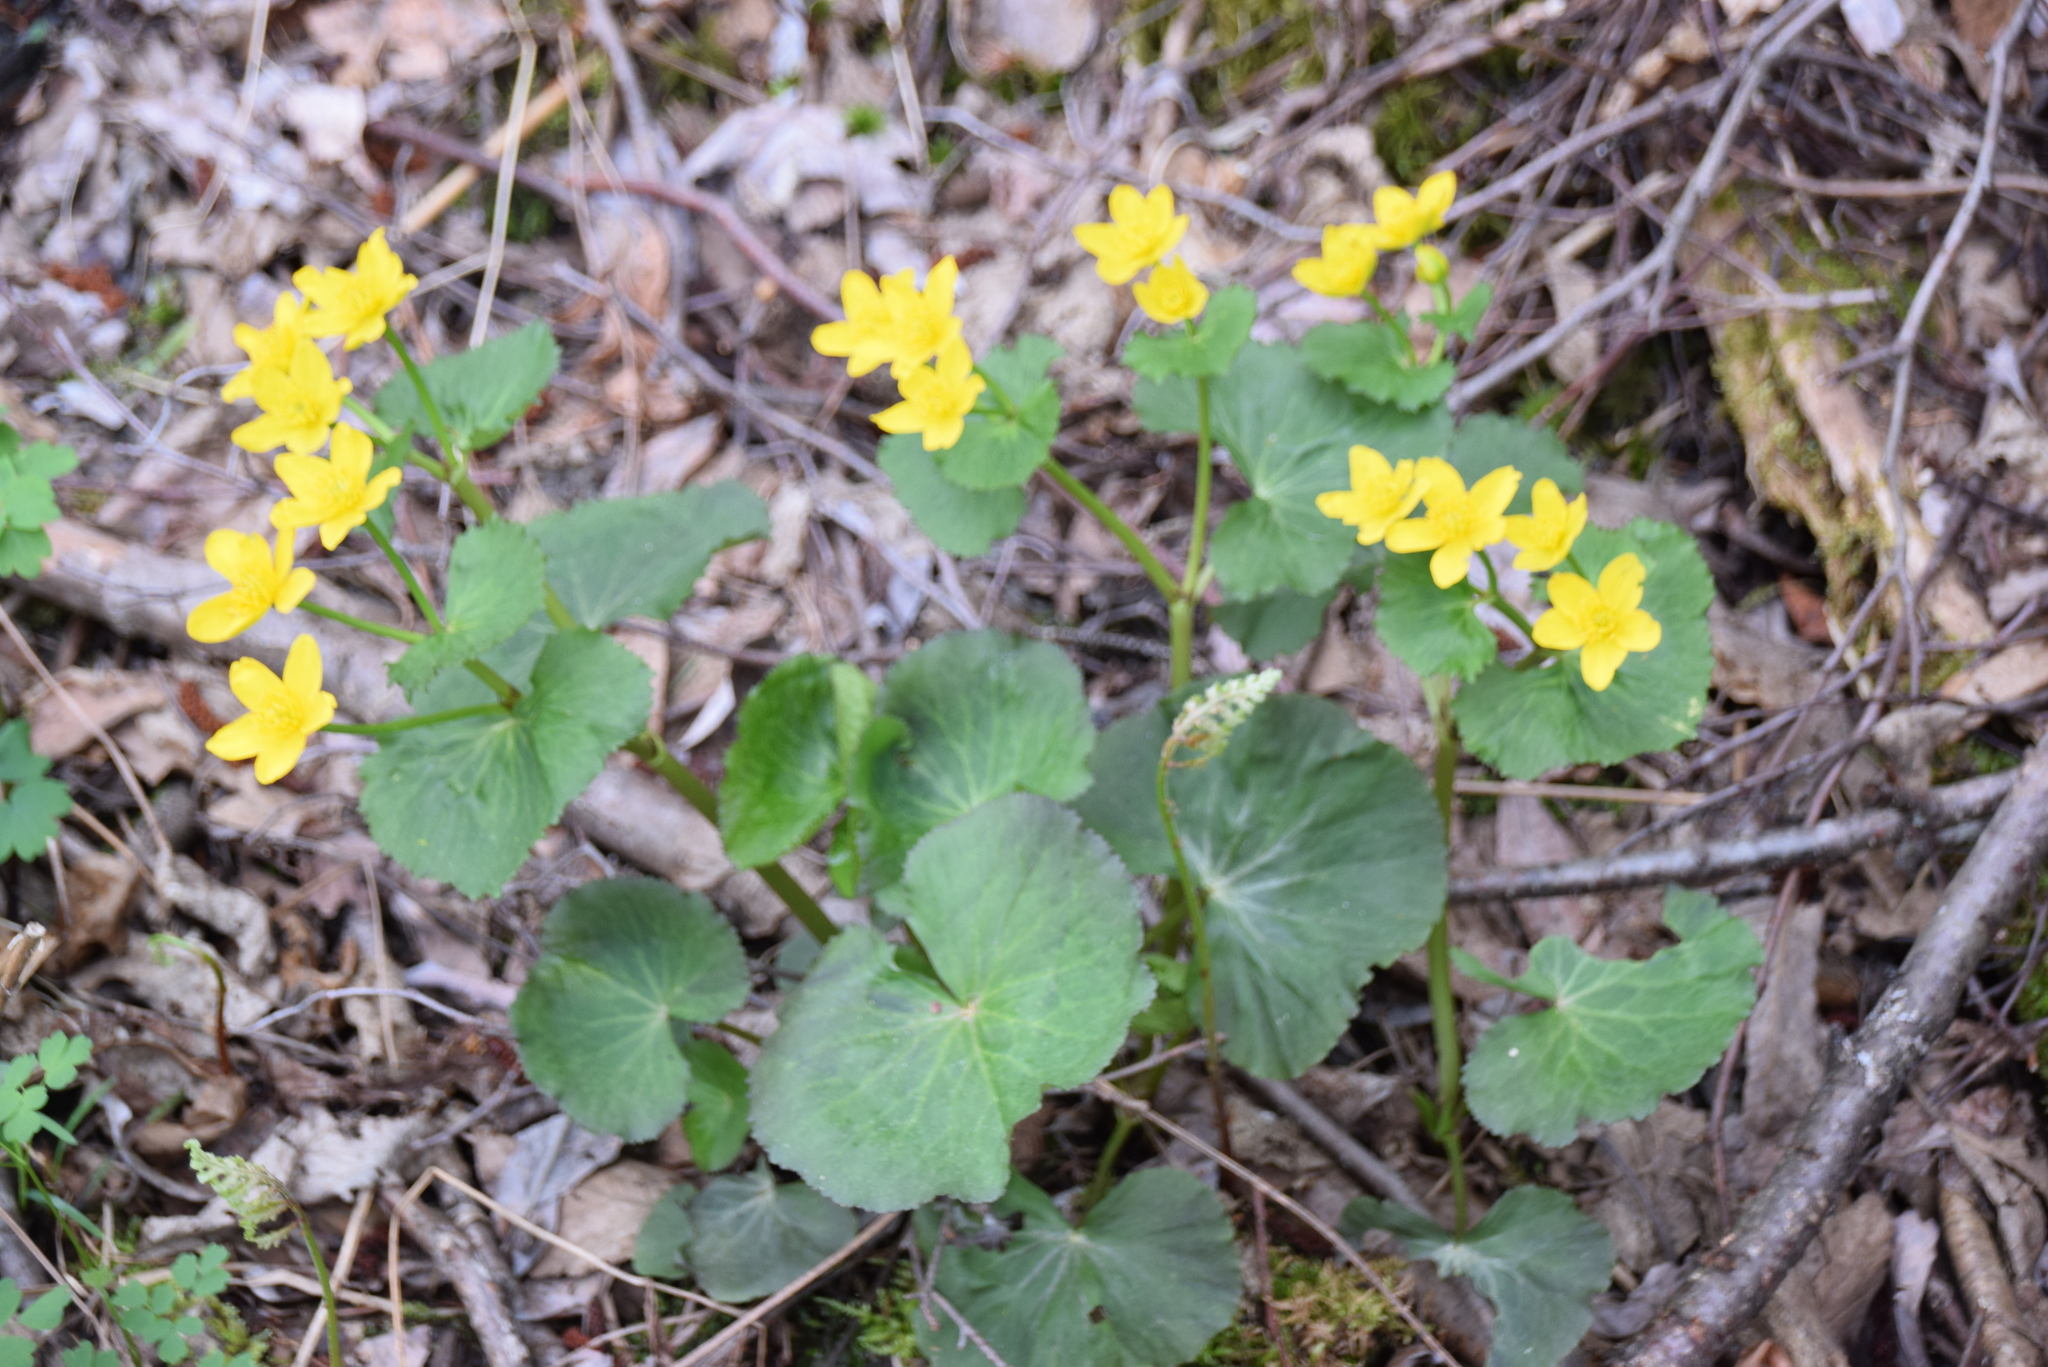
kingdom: Plantae
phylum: Tracheophyta
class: Magnoliopsida
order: Ranunculales
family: Ranunculaceae
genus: Caltha
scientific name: Caltha palustris
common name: Marsh marigold
